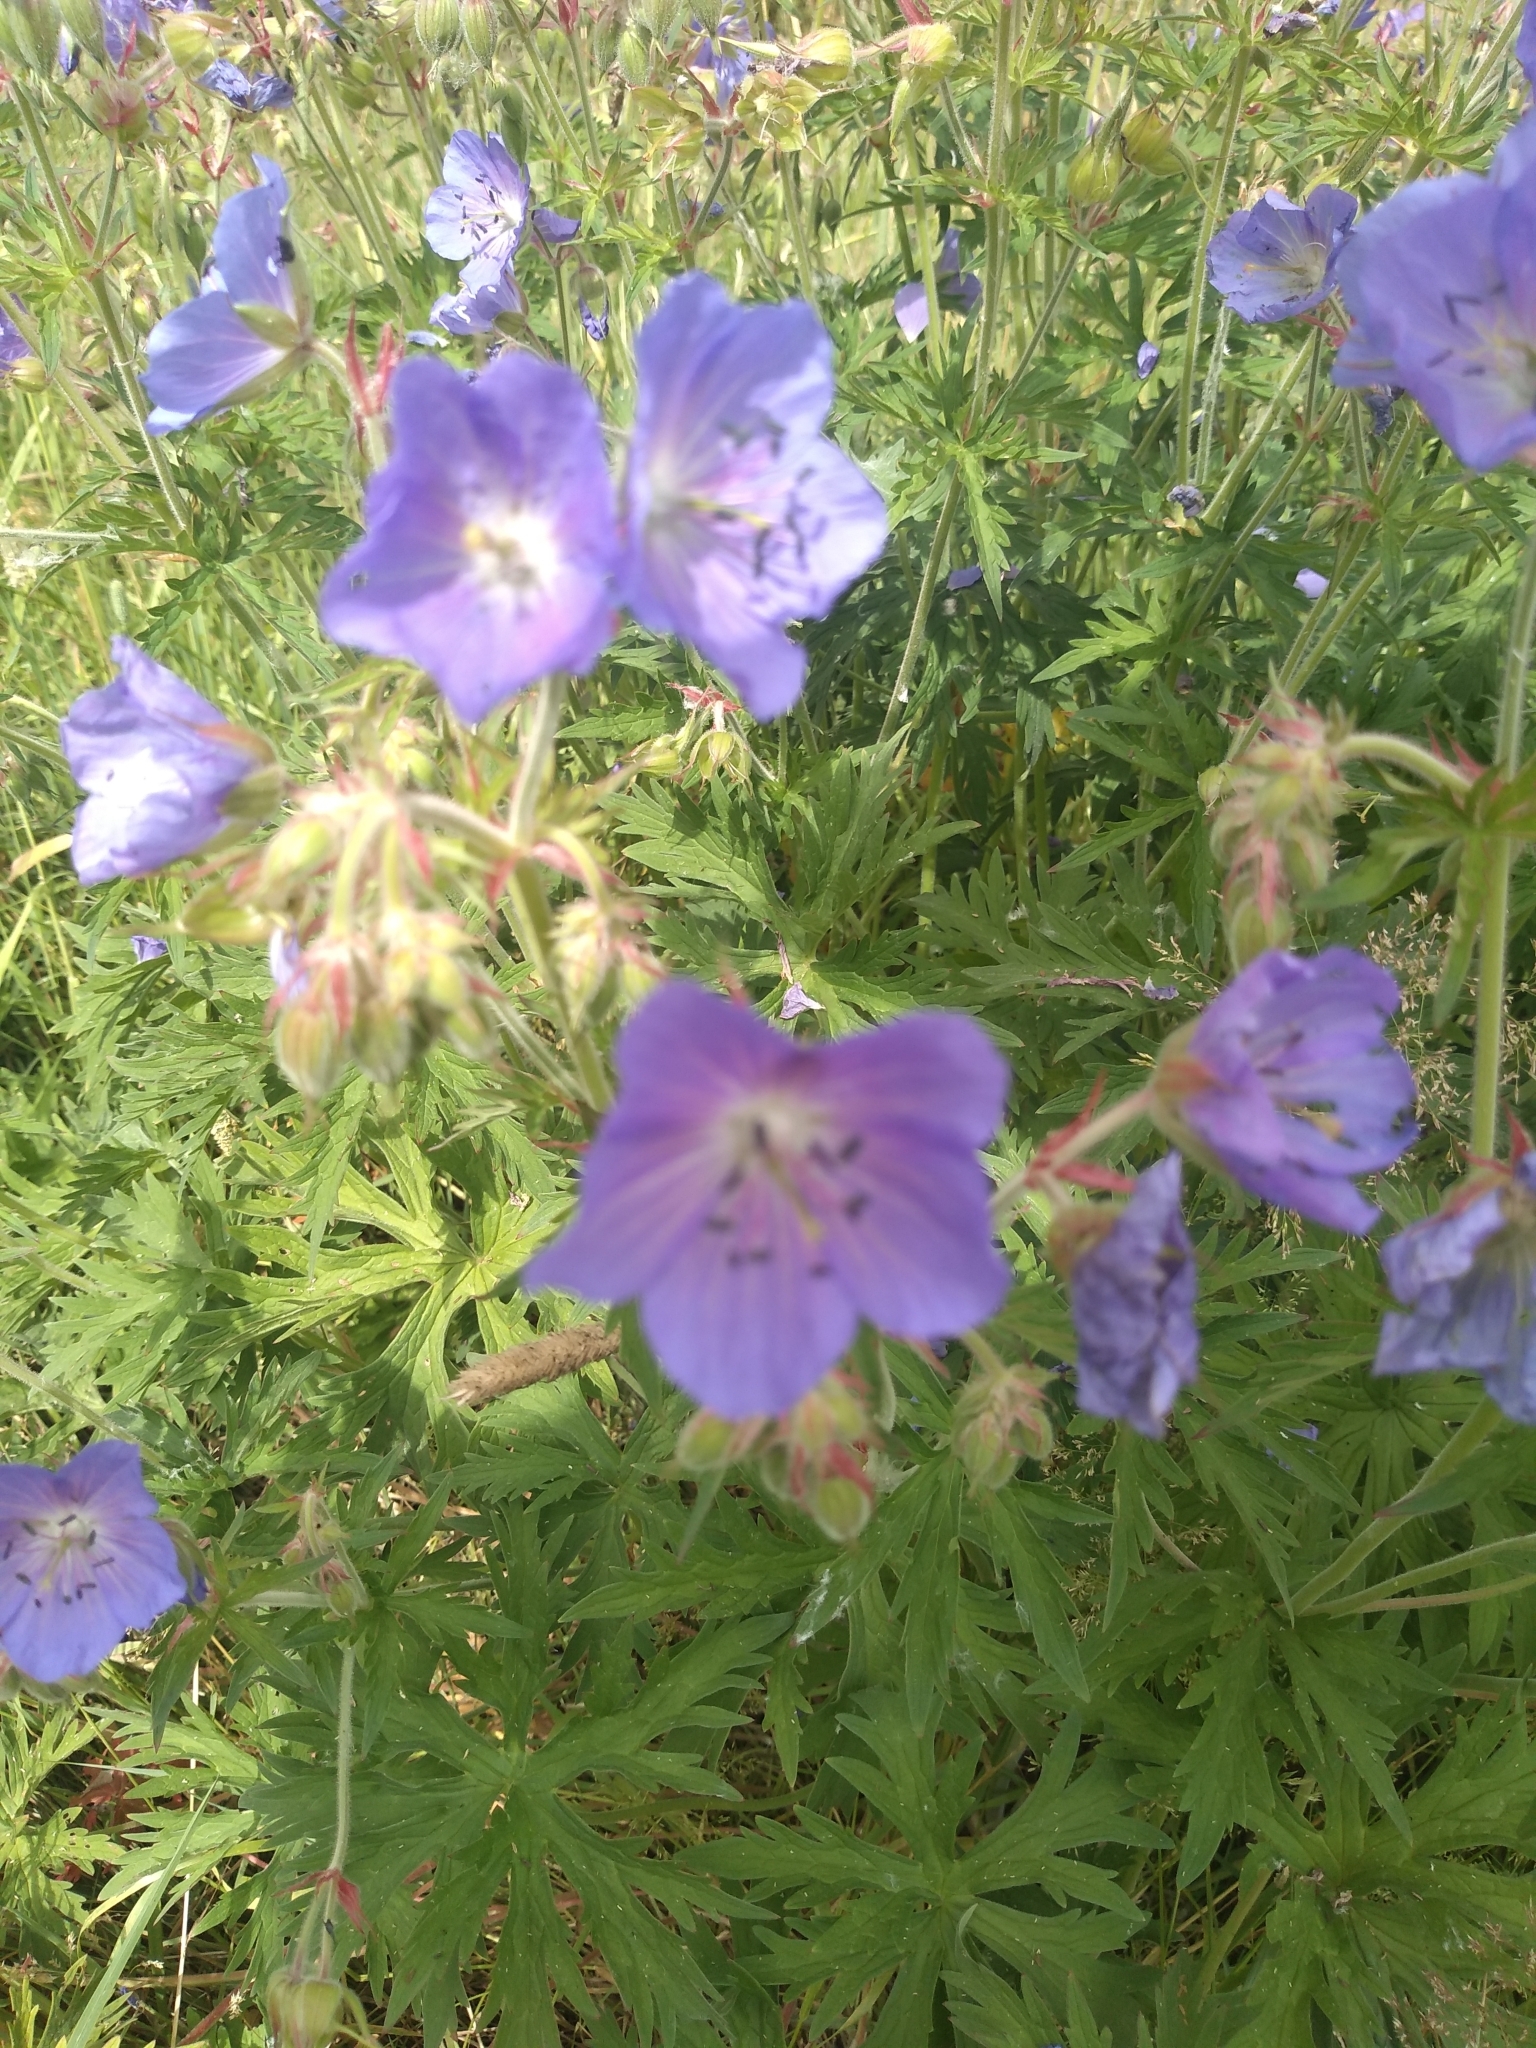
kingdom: Plantae
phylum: Tracheophyta
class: Magnoliopsida
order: Geraniales
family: Geraniaceae
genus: Geranium
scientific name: Geranium pratense
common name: Meadow crane's-bill
